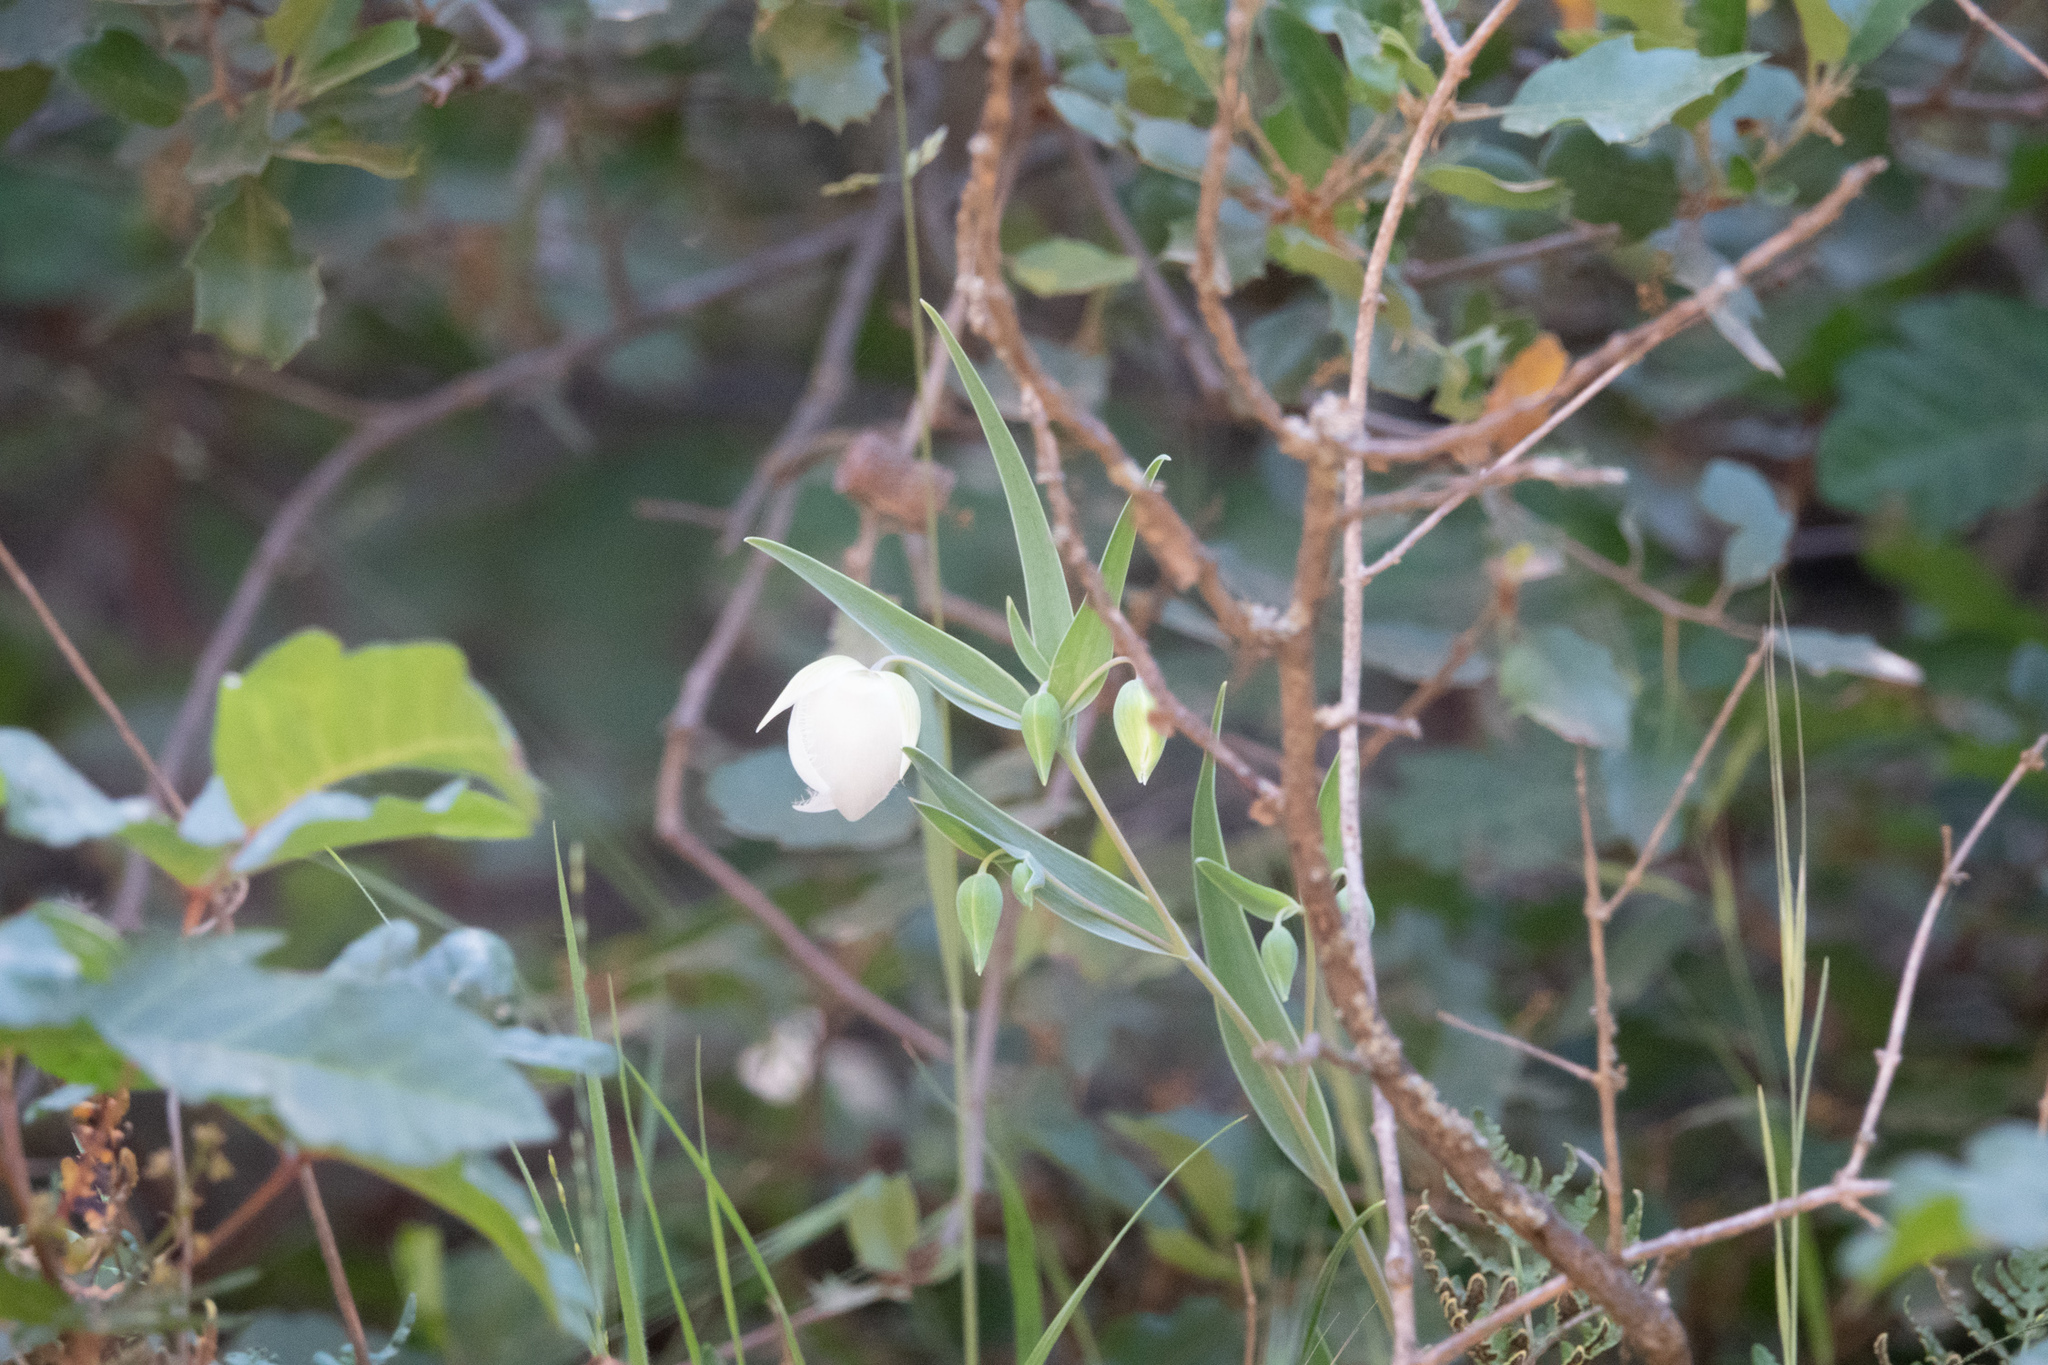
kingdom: Plantae
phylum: Tracheophyta
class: Liliopsida
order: Liliales
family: Liliaceae
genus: Calochortus
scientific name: Calochortus albus
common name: Fairy-lantern
